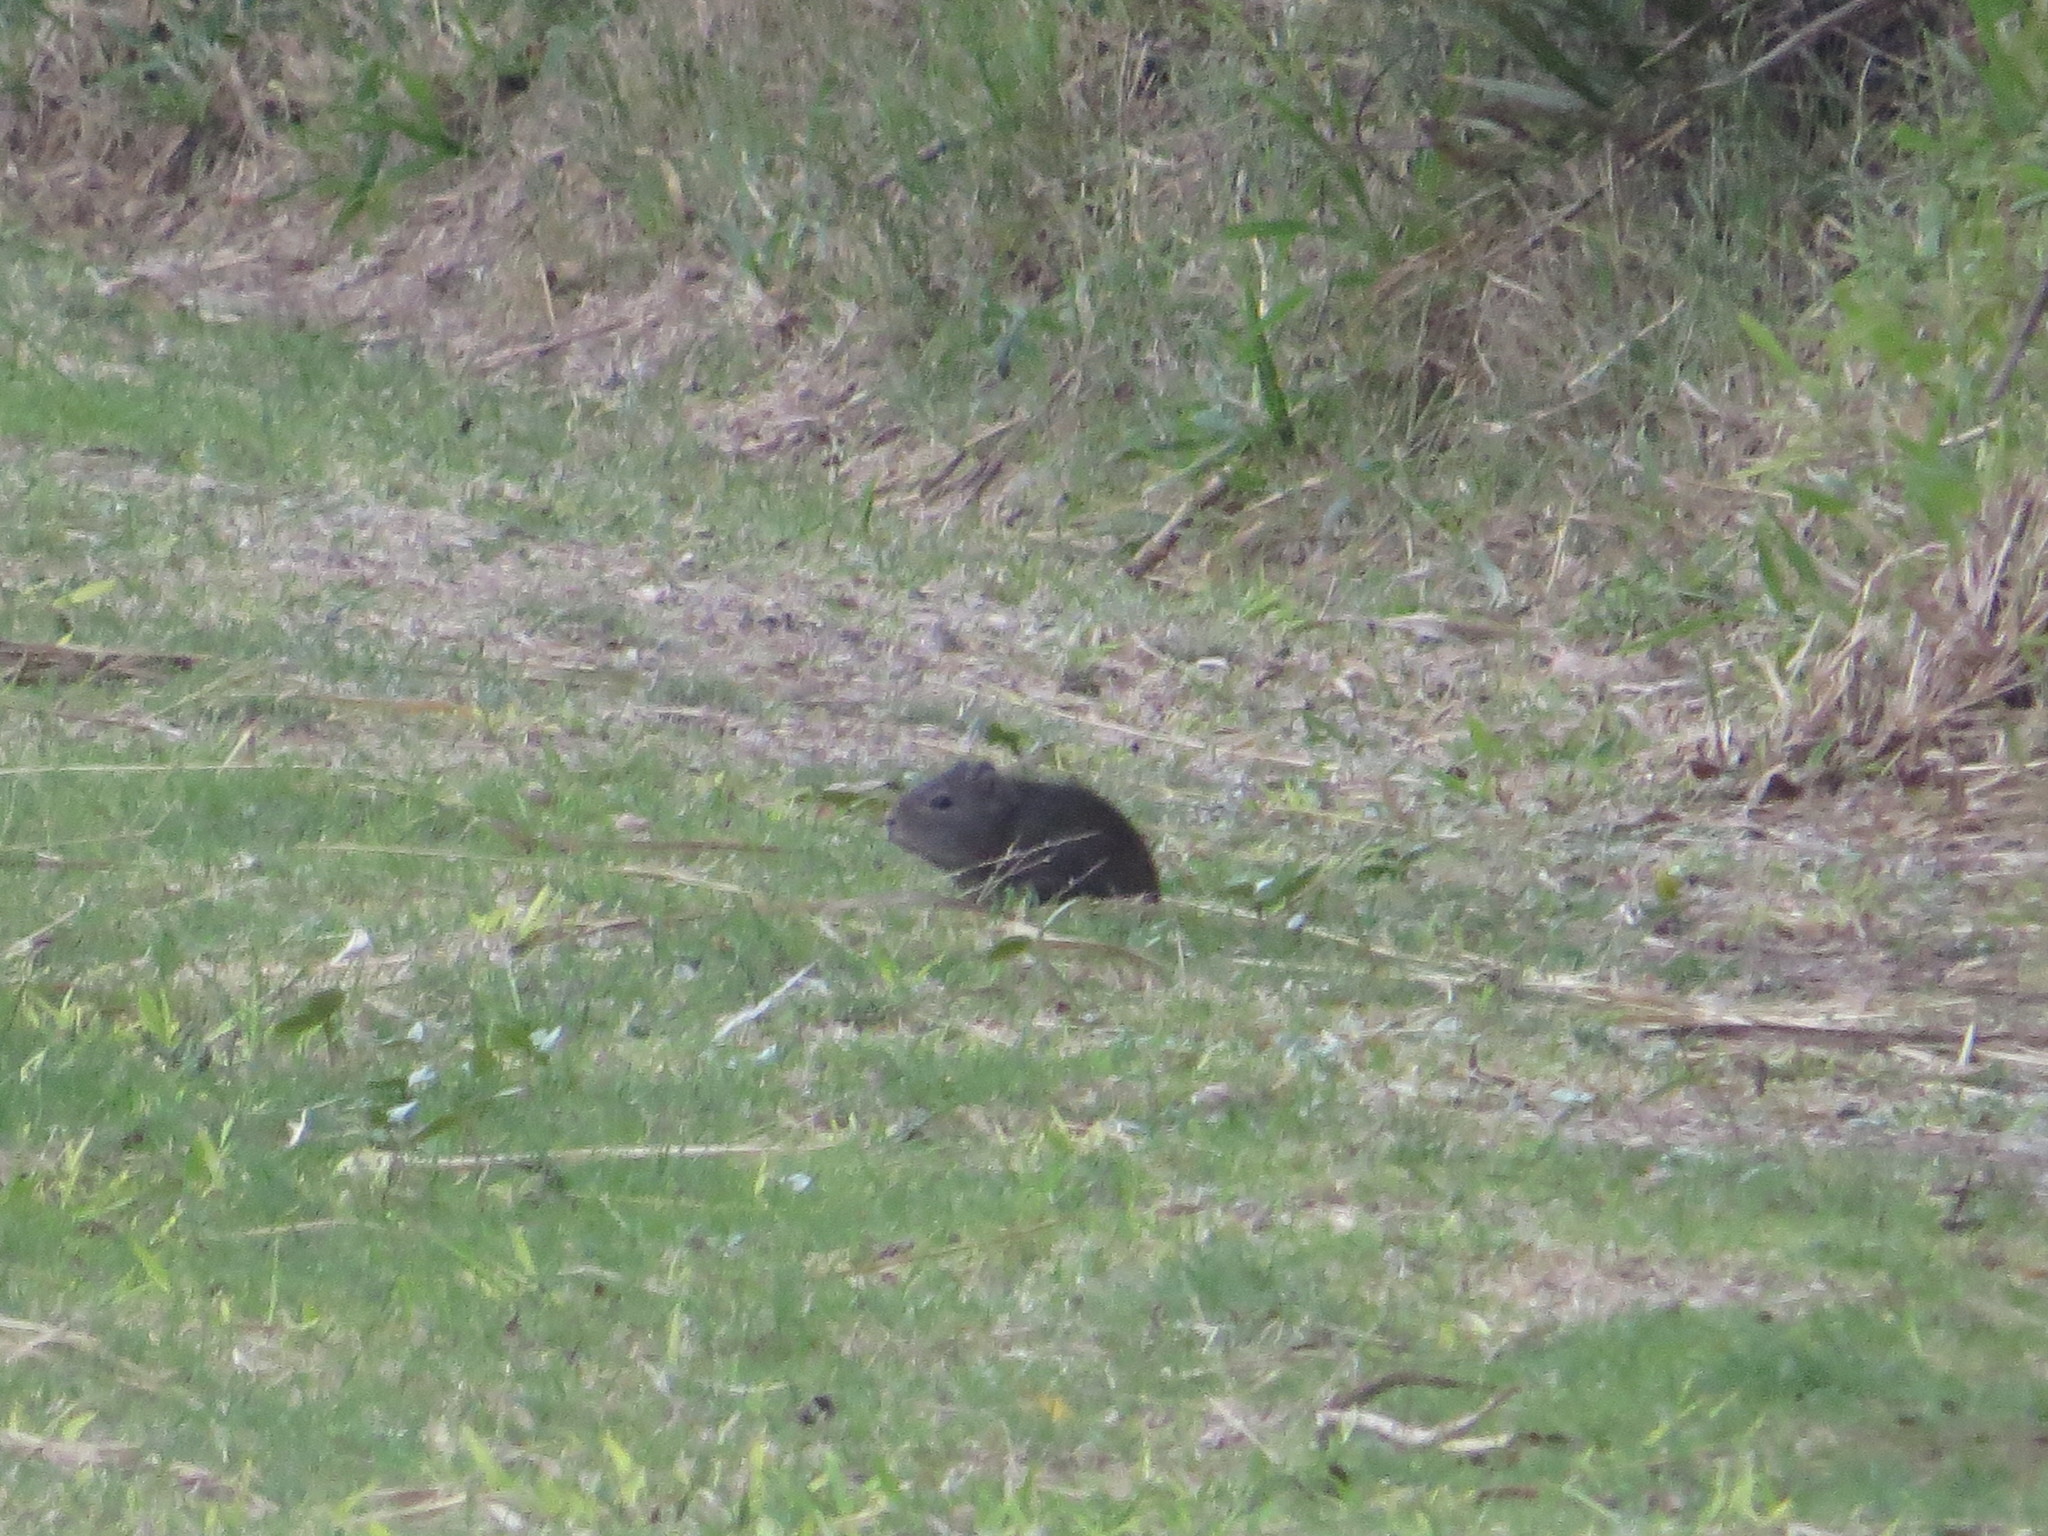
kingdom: Animalia
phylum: Chordata
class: Mammalia
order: Rodentia
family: Caviidae
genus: Cavia
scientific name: Cavia aperea
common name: Brazilian guinea pig
